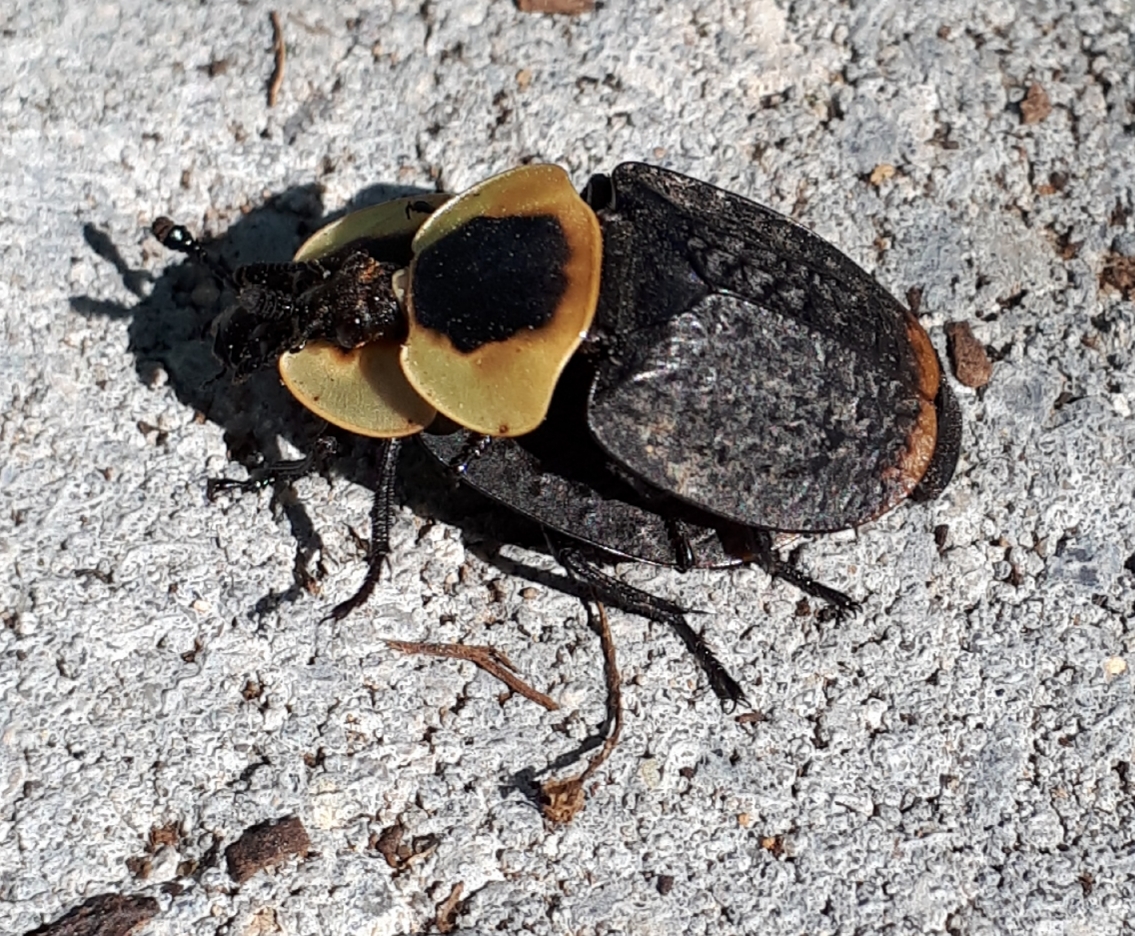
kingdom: Animalia
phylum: Arthropoda
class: Insecta
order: Coleoptera
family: Staphylinidae
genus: Necrophila
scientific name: Necrophila americana
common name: American carrion beetle
